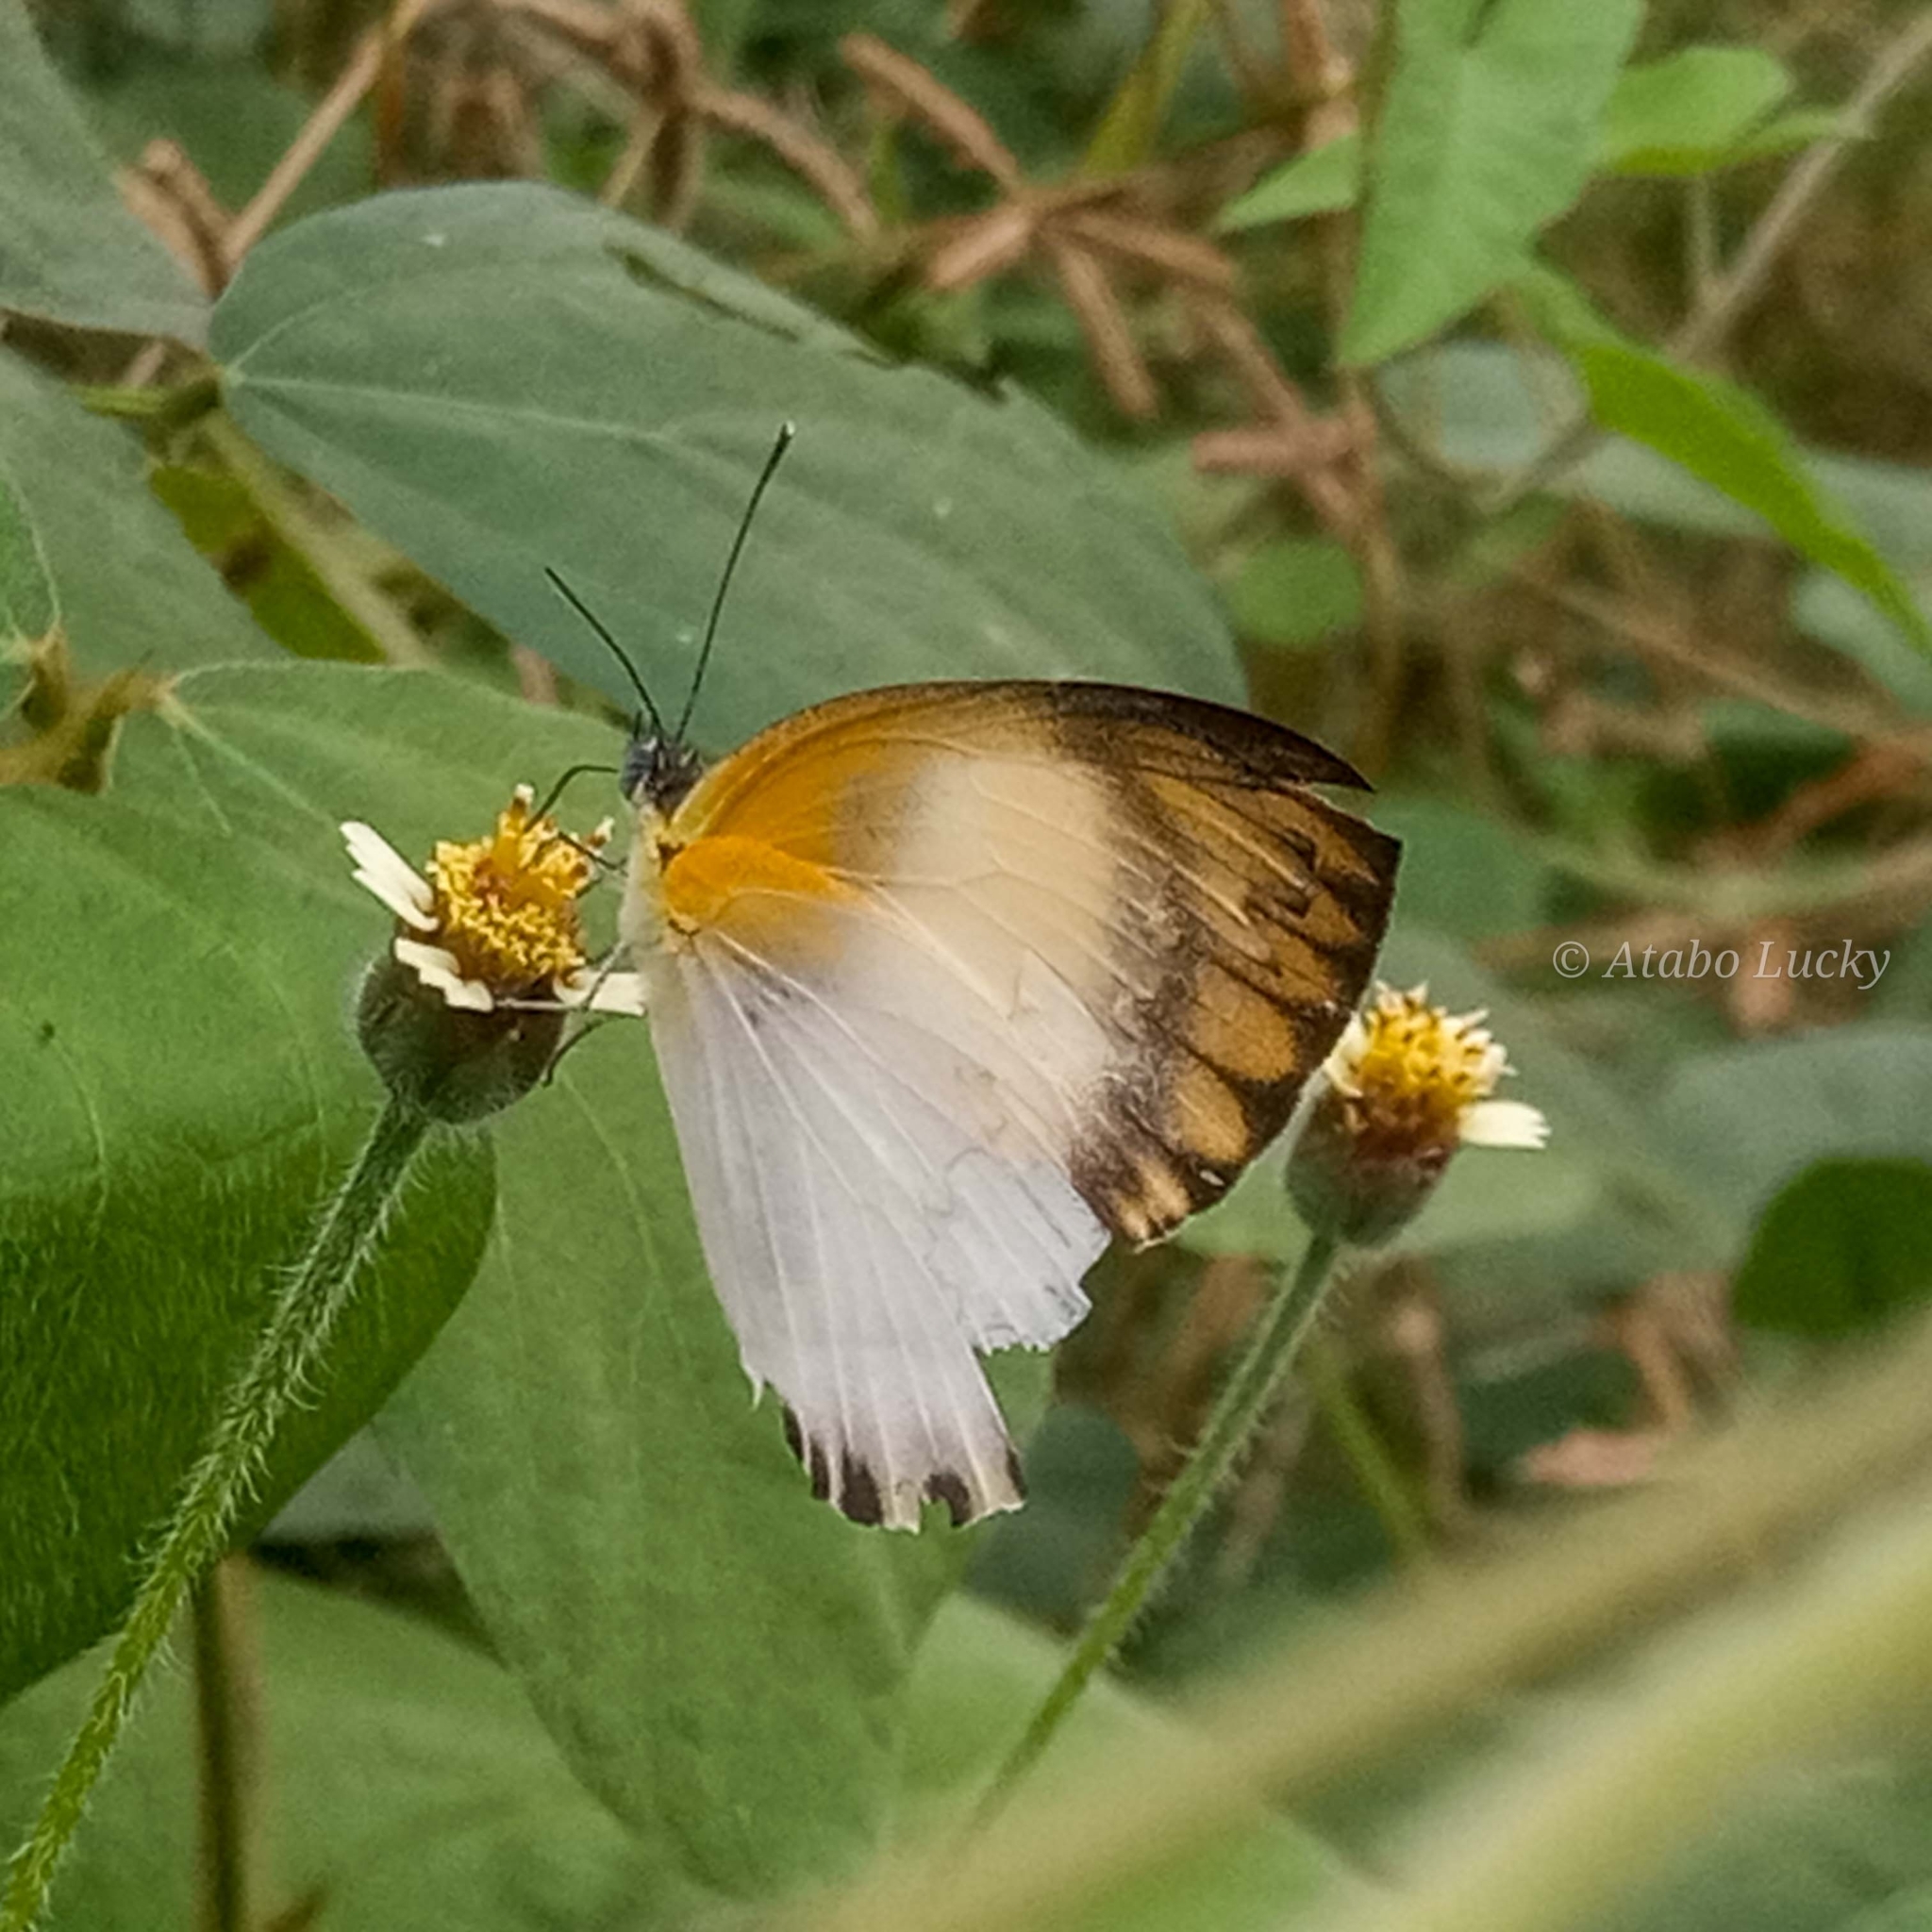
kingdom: Animalia
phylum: Arthropoda
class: Insecta
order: Lepidoptera
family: Pieridae
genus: Appias
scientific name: Appias sylvia
